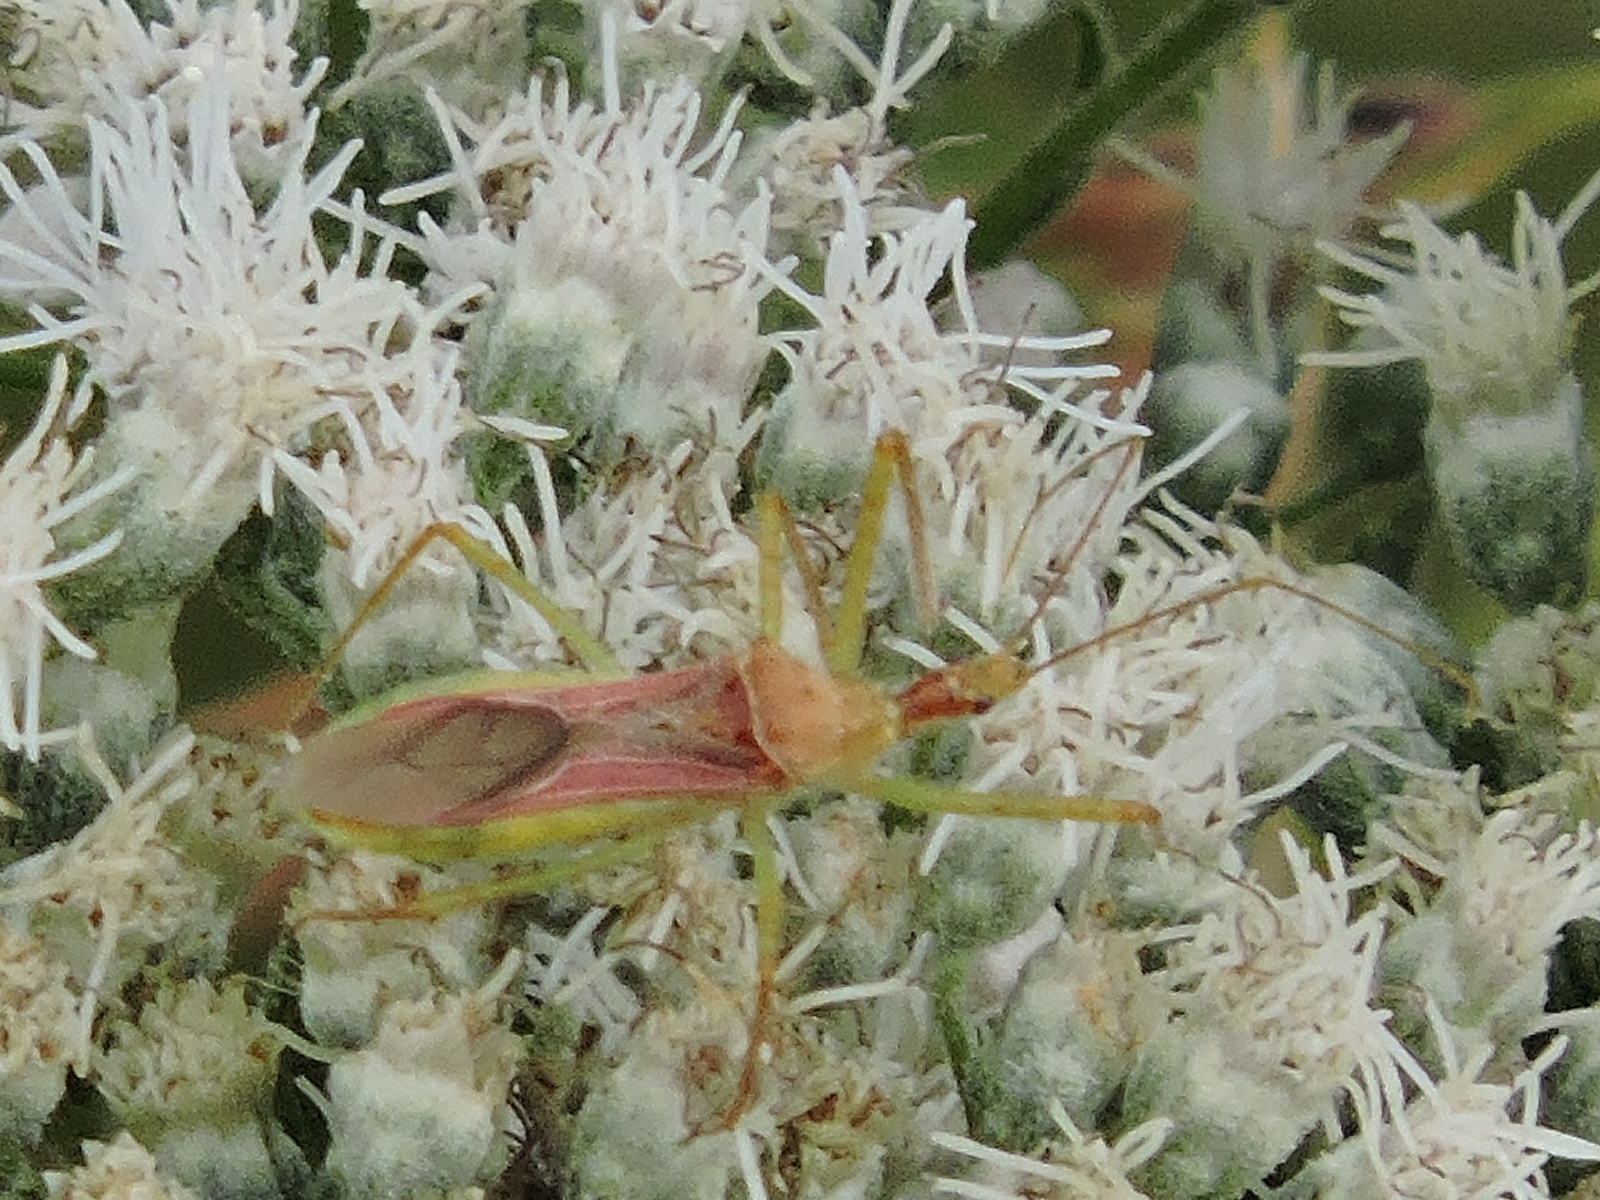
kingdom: Animalia
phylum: Arthropoda
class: Insecta
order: Hemiptera
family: Reduviidae
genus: Zelus
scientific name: Zelus renardii
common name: Assassin bug
